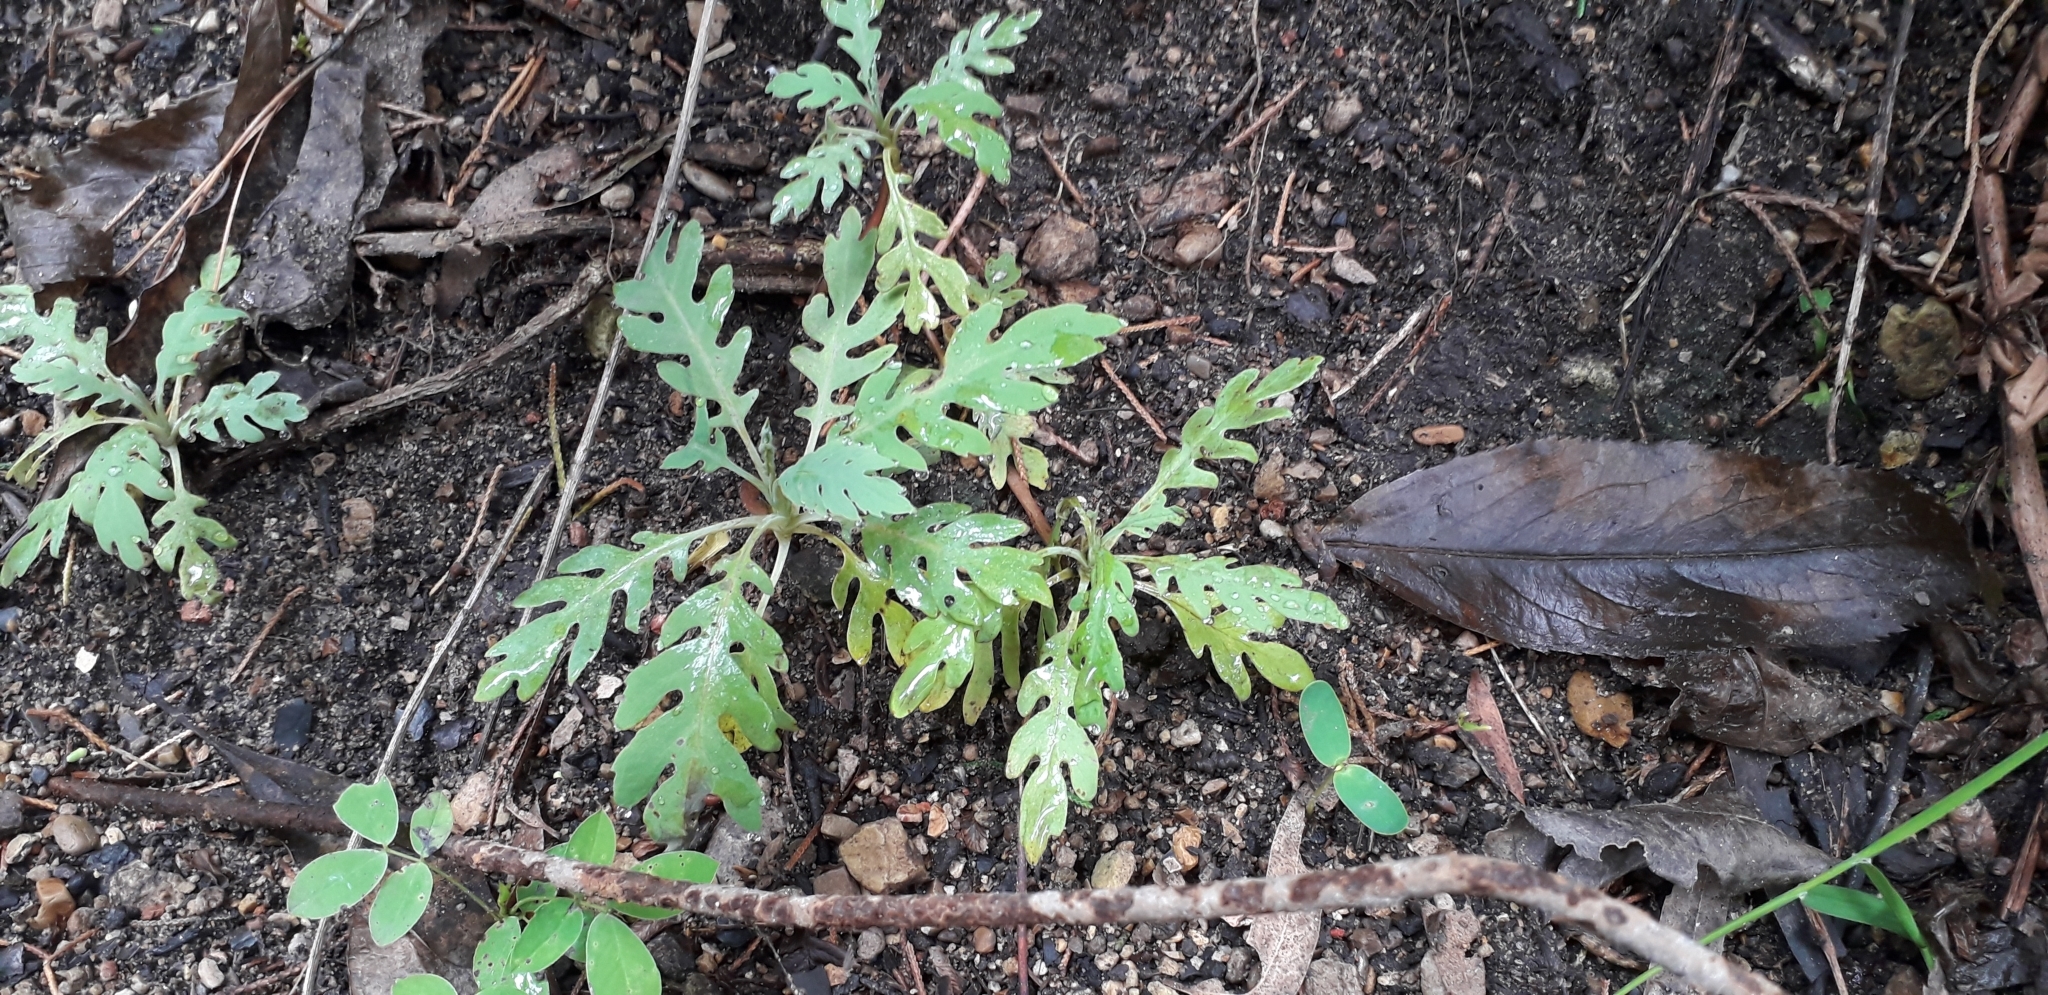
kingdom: Plantae
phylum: Tracheophyta
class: Magnoliopsida
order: Ranunculales
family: Papaveraceae
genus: Bocconia
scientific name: Bocconia frutescens
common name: Tree poppy
